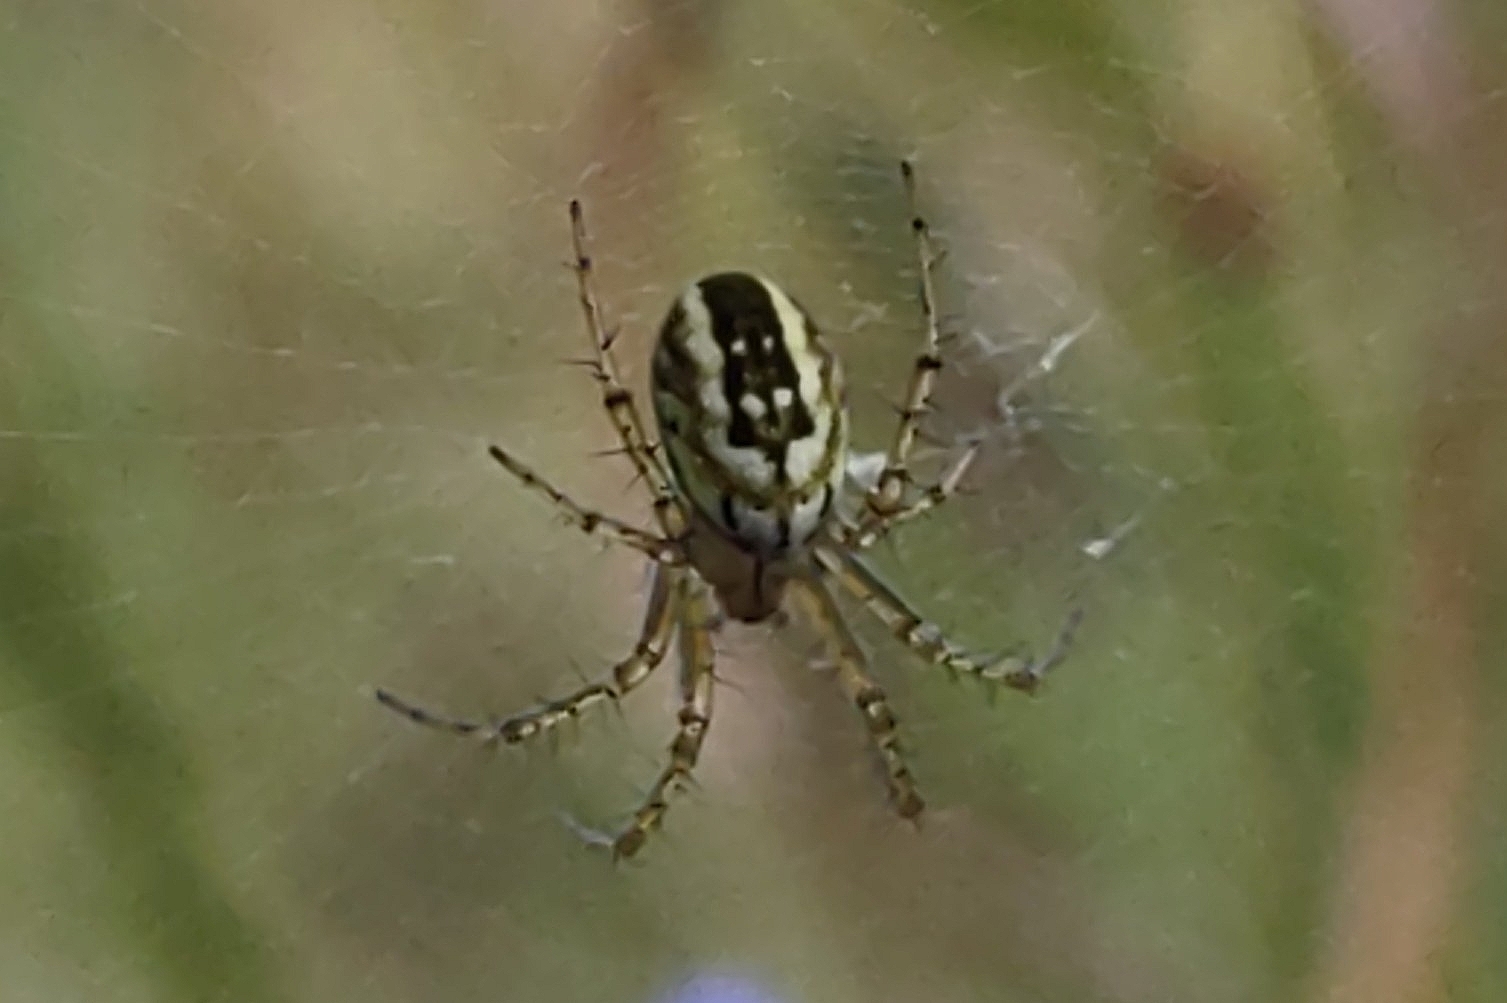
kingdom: Animalia
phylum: Arthropoda
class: Arachnida
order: Araneae
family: Araneidae
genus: Mangora
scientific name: Mangora acalypha
